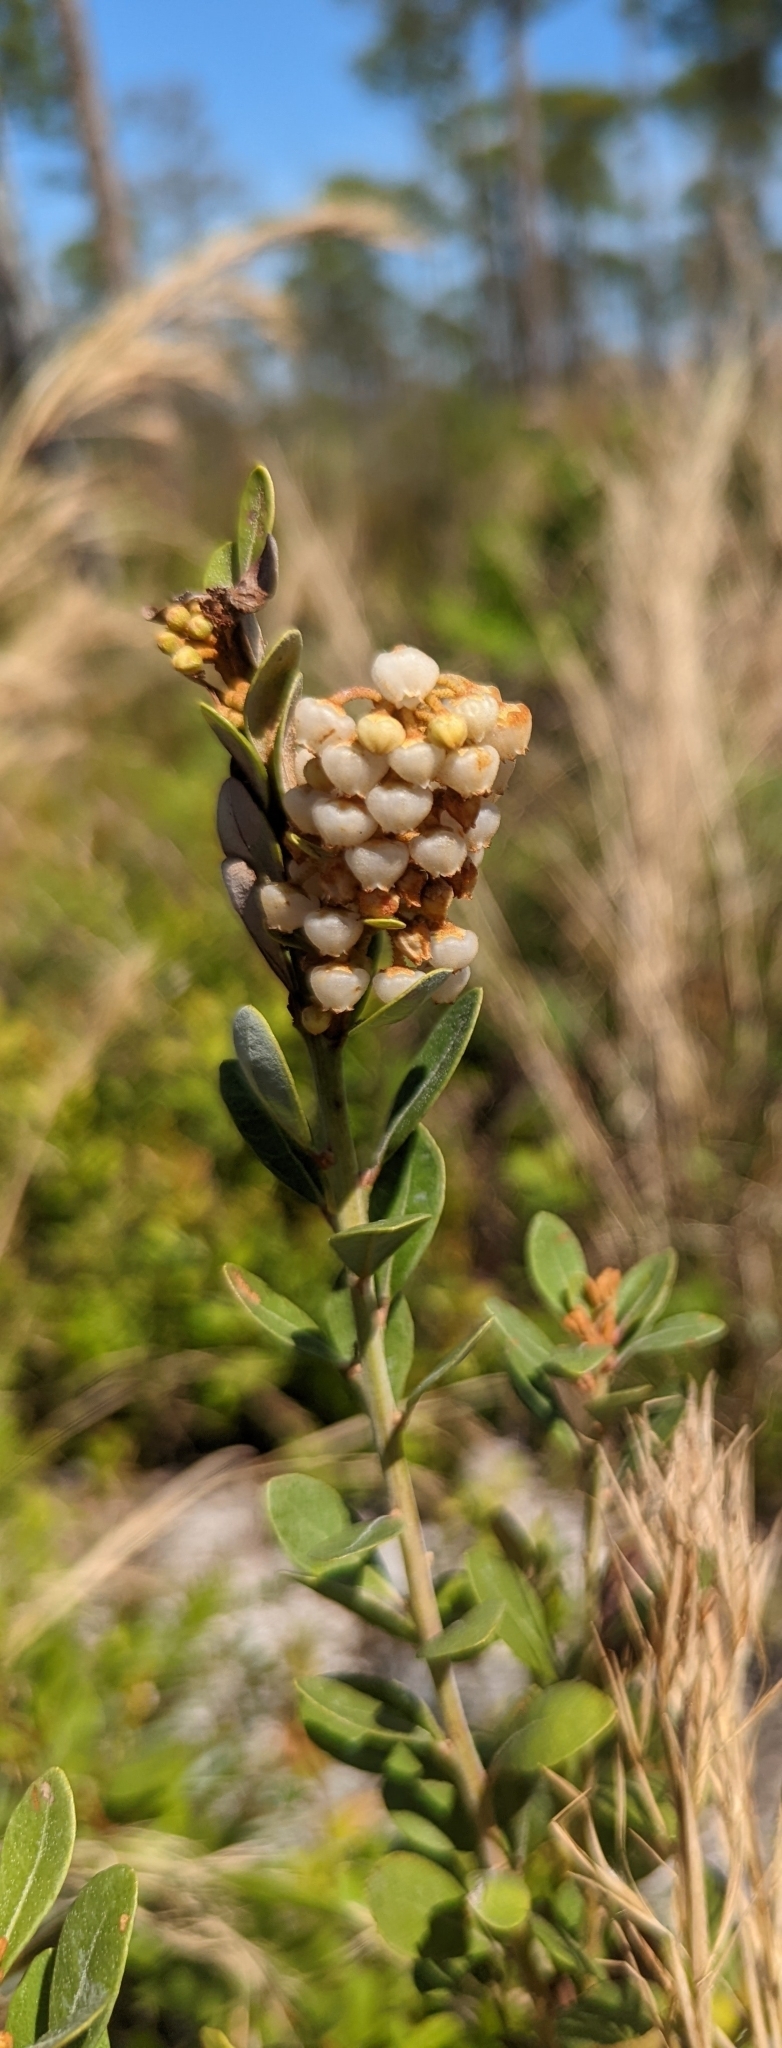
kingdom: Plantae
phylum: Tracheophyta
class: Magnoliopsida
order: Ericales
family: Ericaceae
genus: Lyonia
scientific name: Lyonia fruticosa
